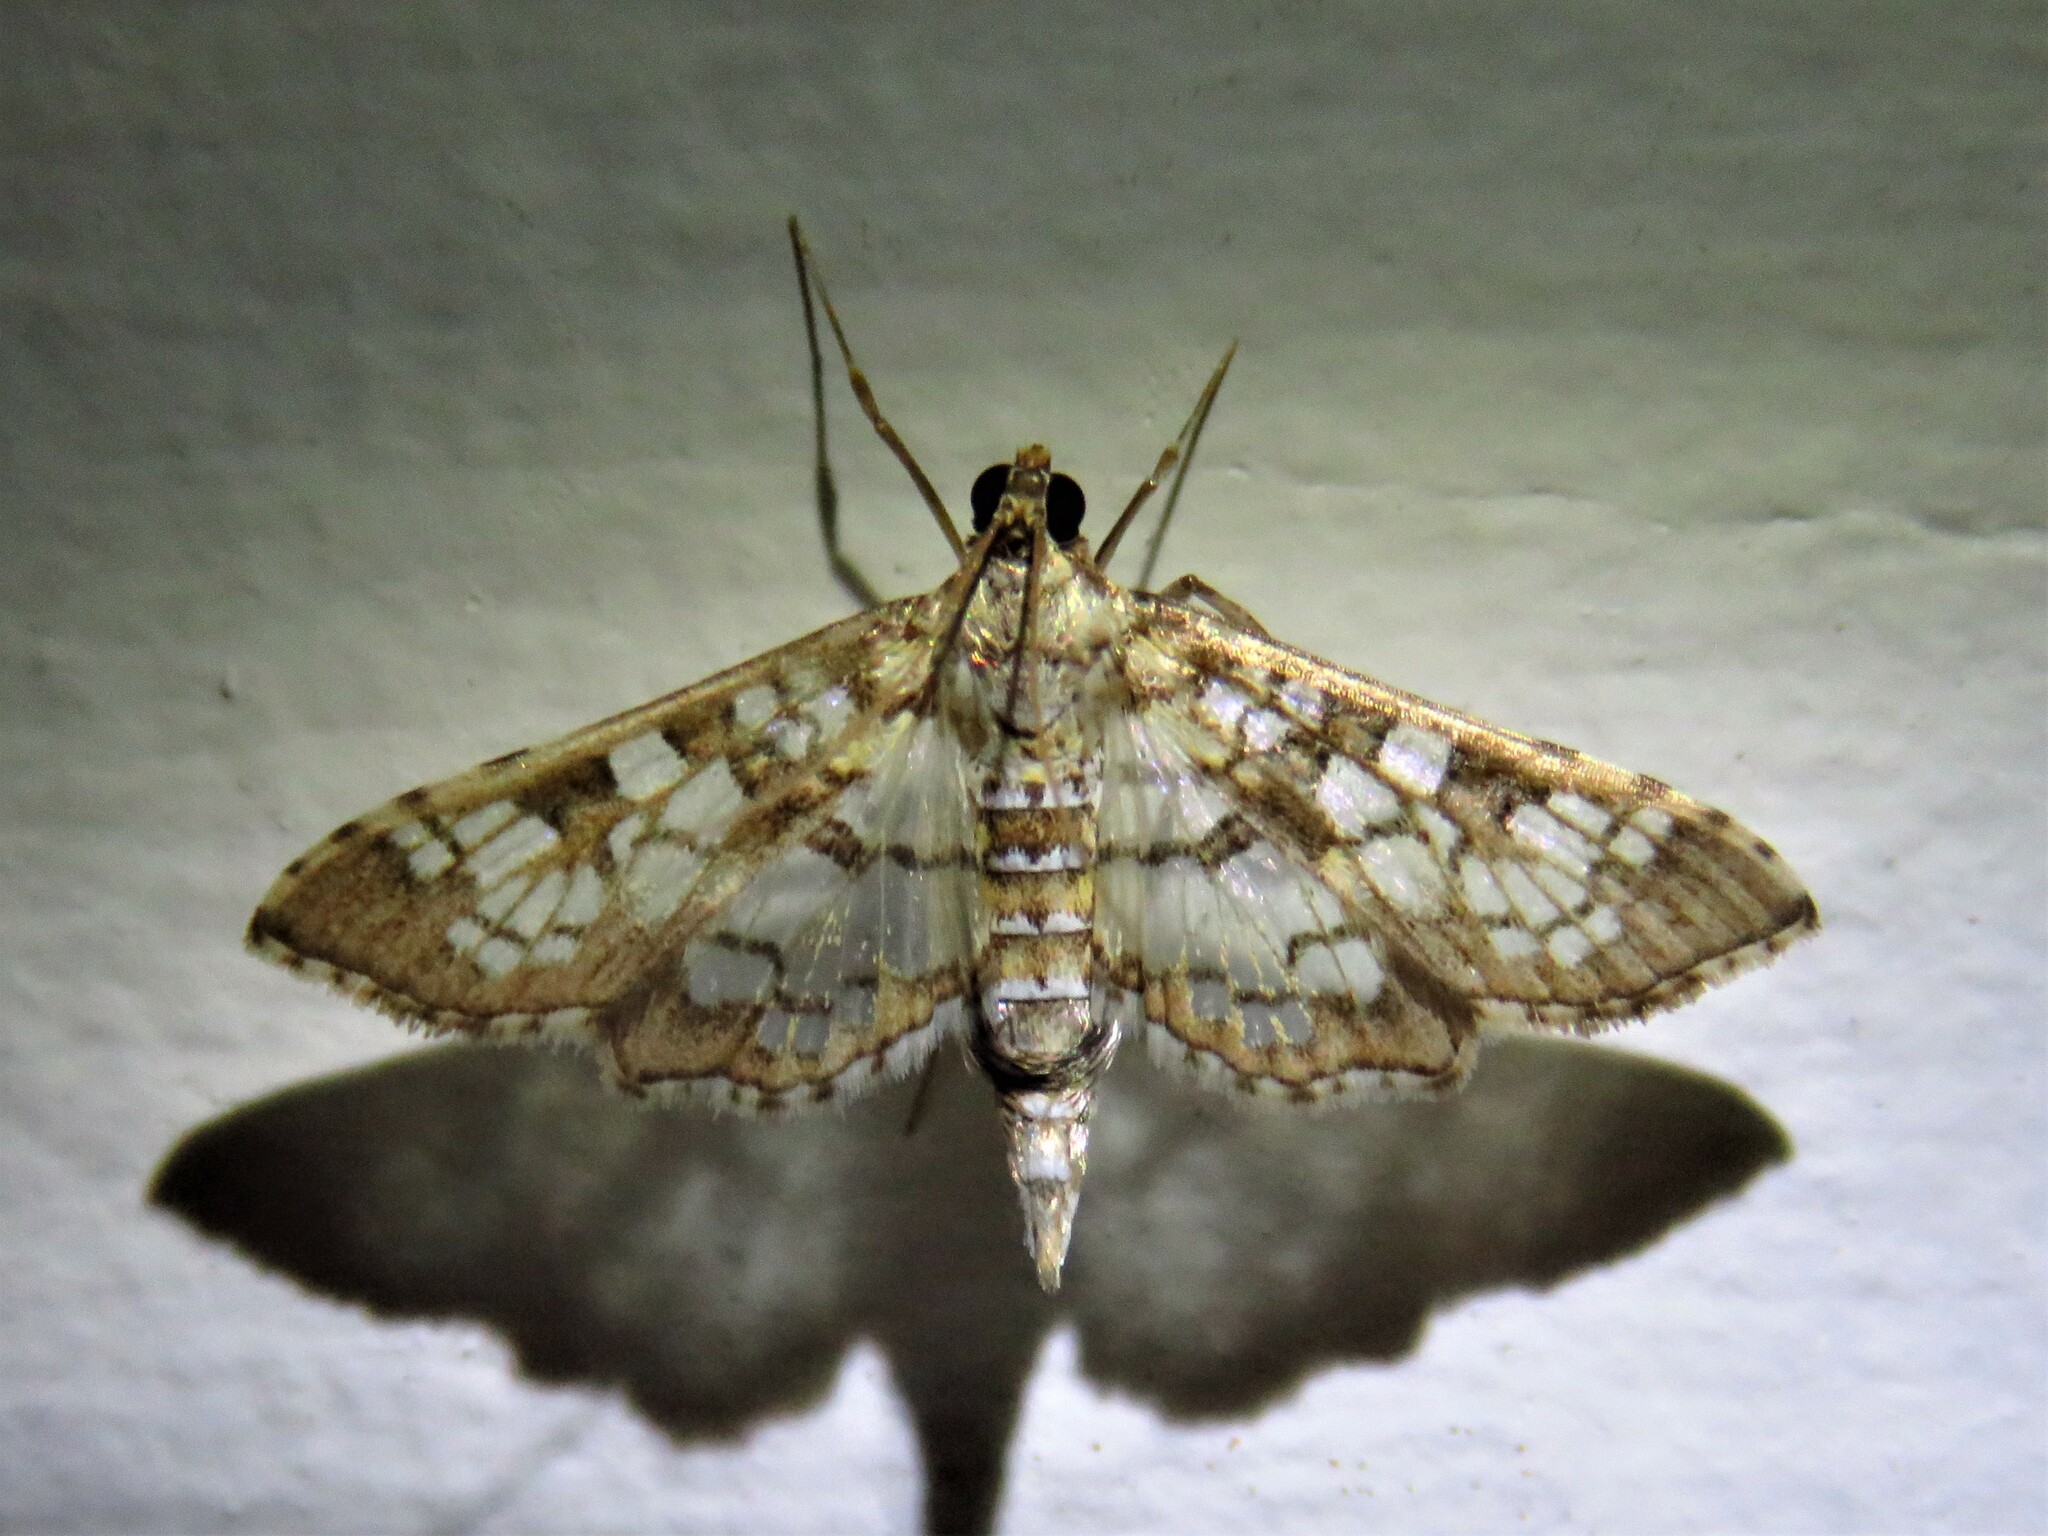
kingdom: Animalia
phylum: Arthropoda
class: Insecta
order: Lepidoptera
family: Crambidae
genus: Samea
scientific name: Samea ecclesialis
